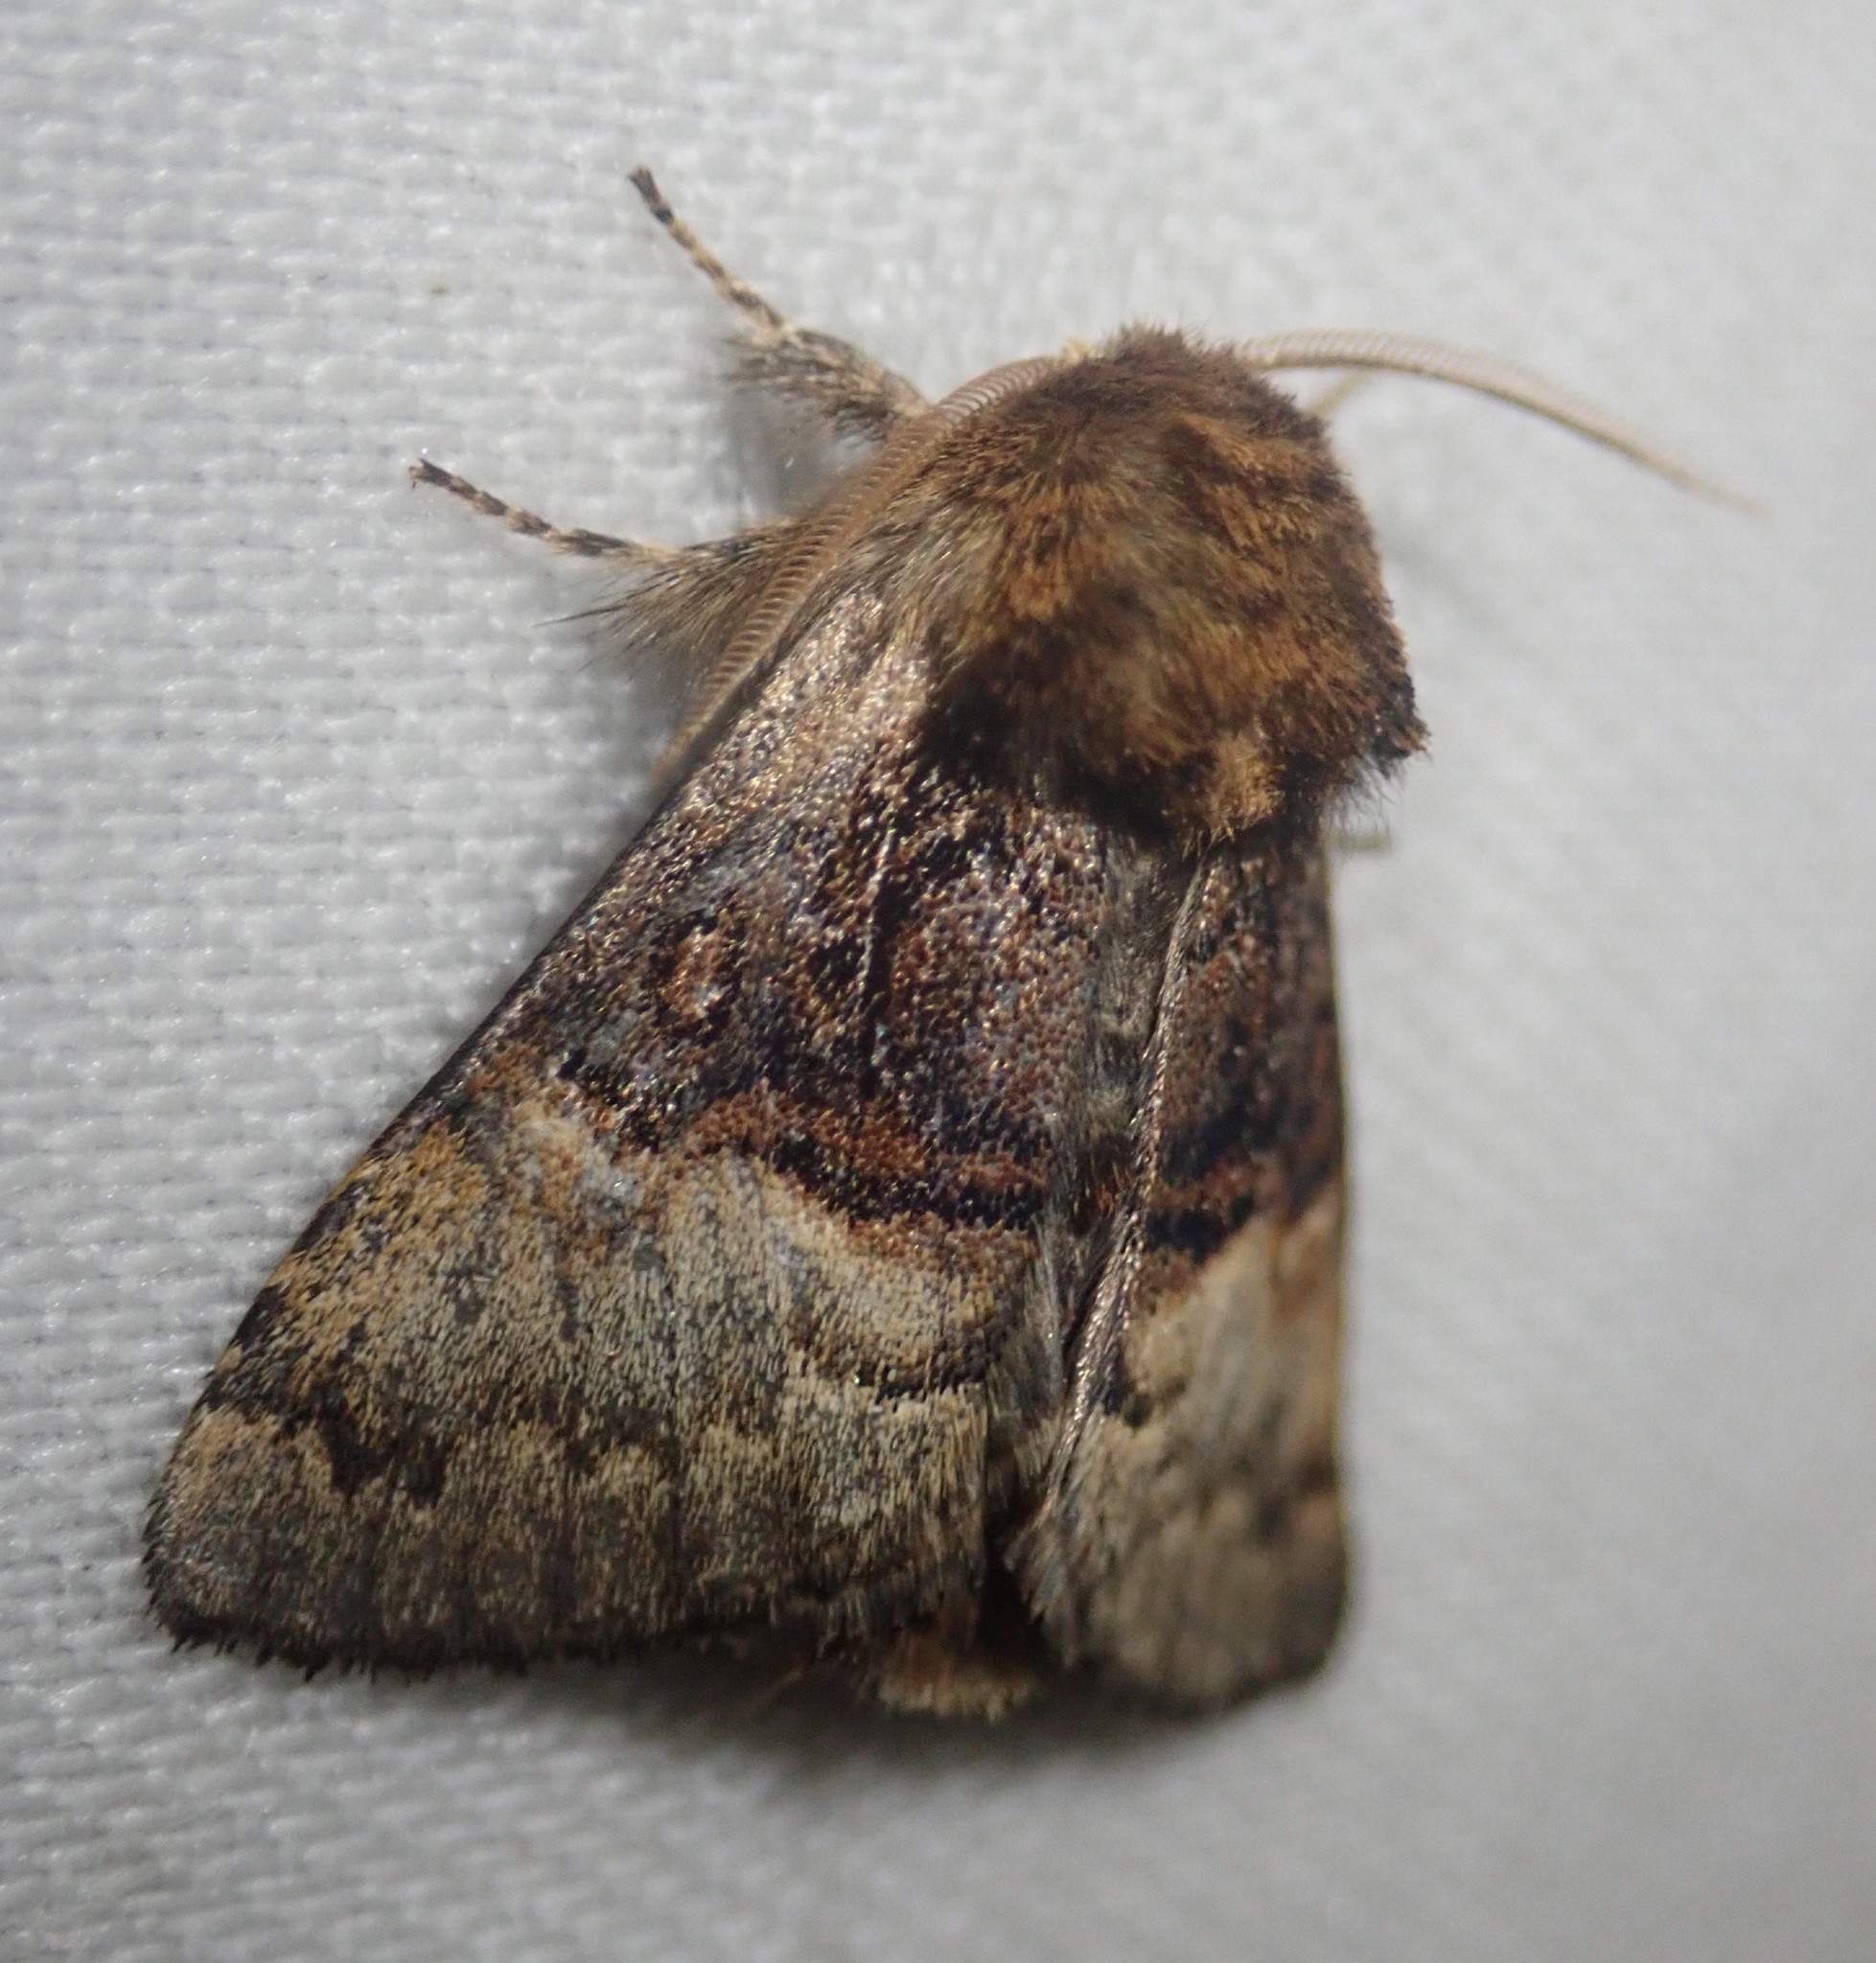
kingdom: Animalia
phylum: Arthropoda
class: Insecta
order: Lepidoptera
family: Noctuidae
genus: Colocasia
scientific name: Colocasia coryli
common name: Nut-tree tussock
